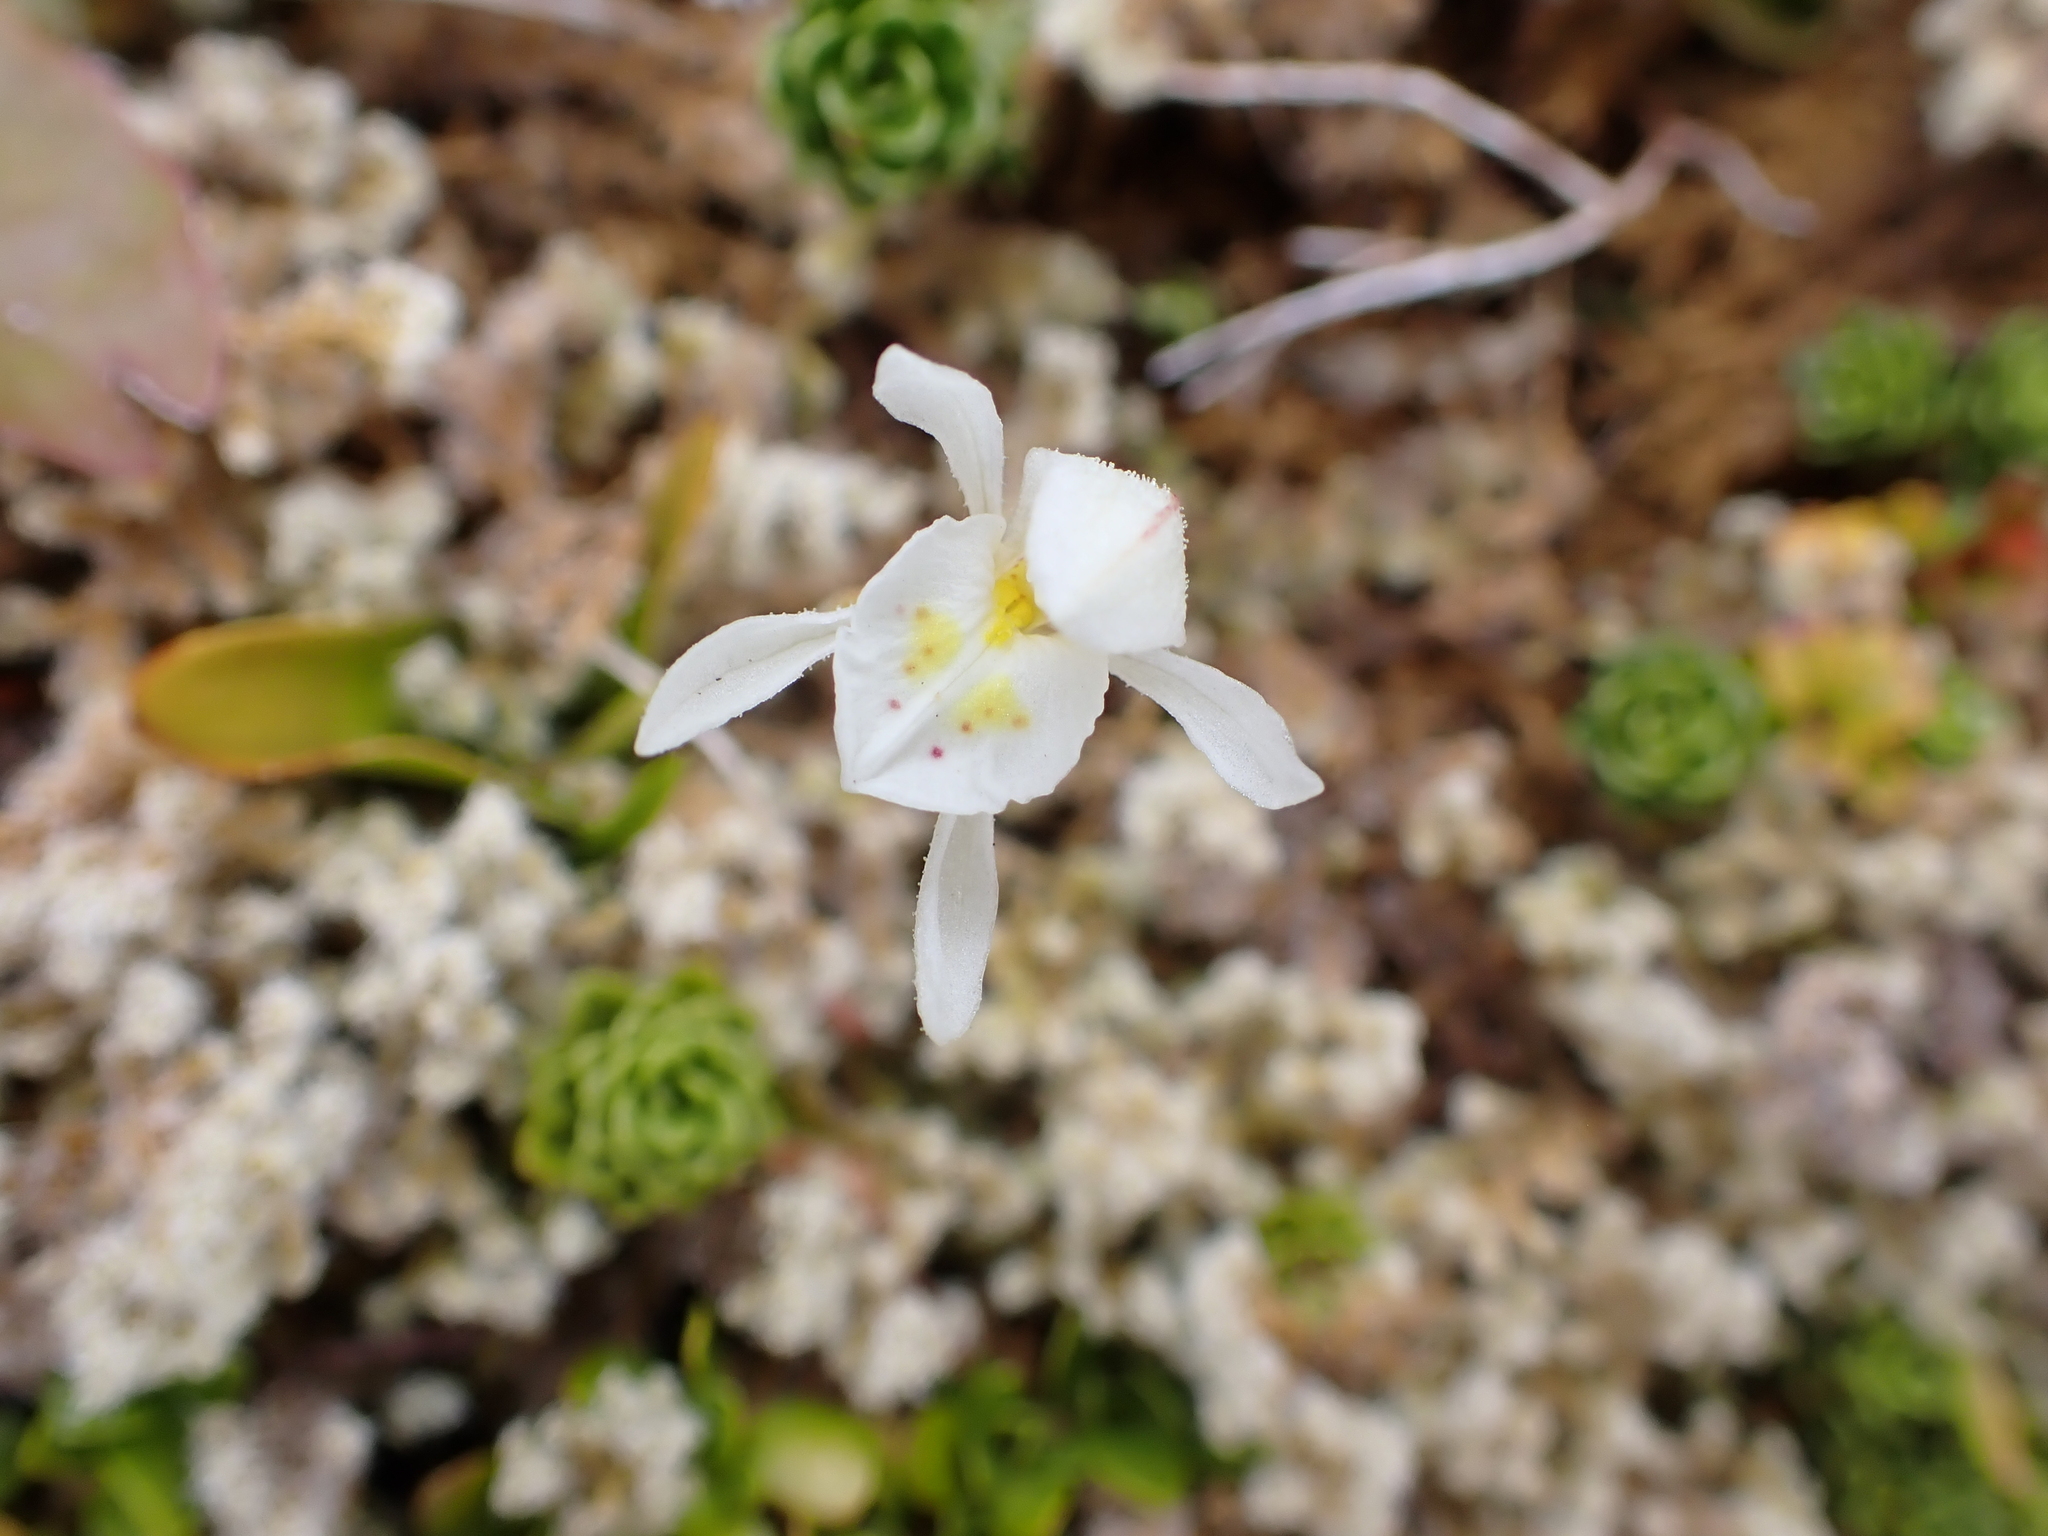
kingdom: Plantae
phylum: Tracheophyta
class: Liliopsida
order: Asparagales
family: Orchidaceae
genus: Aporostylis
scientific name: Aporostylis bifolia
